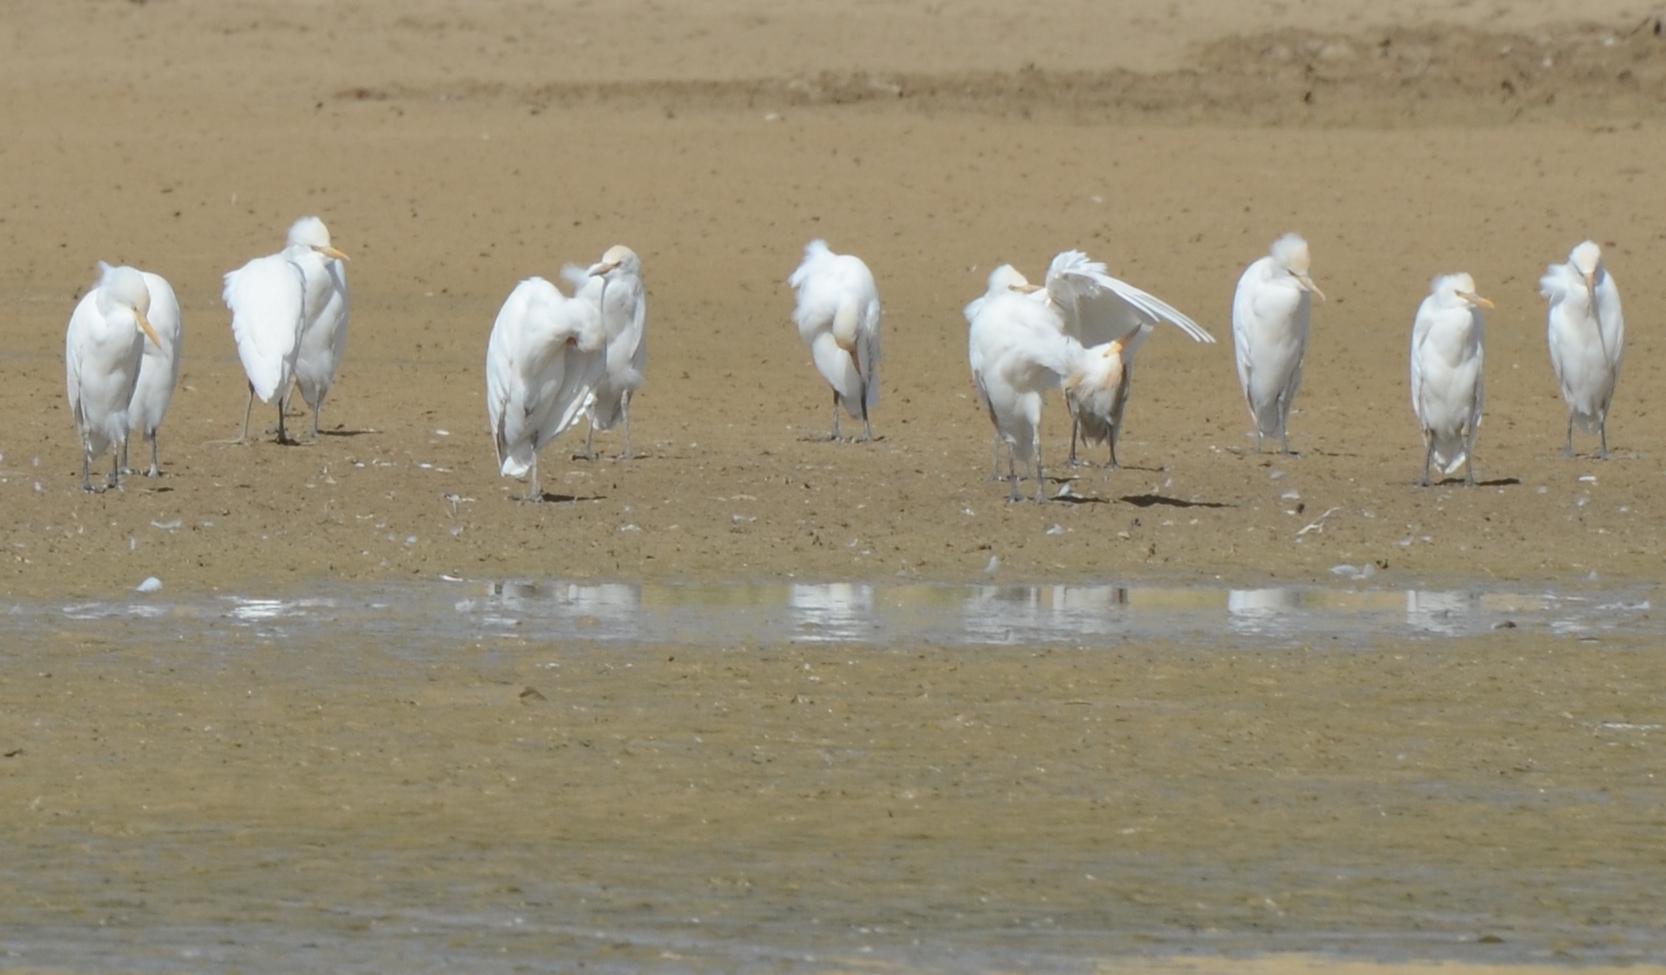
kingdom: Animalia
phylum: Chordata
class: Aves
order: Pelecaniformes
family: Ardeidae
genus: Bubulcus
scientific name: Bubulcus ibis
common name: Cattle egret
